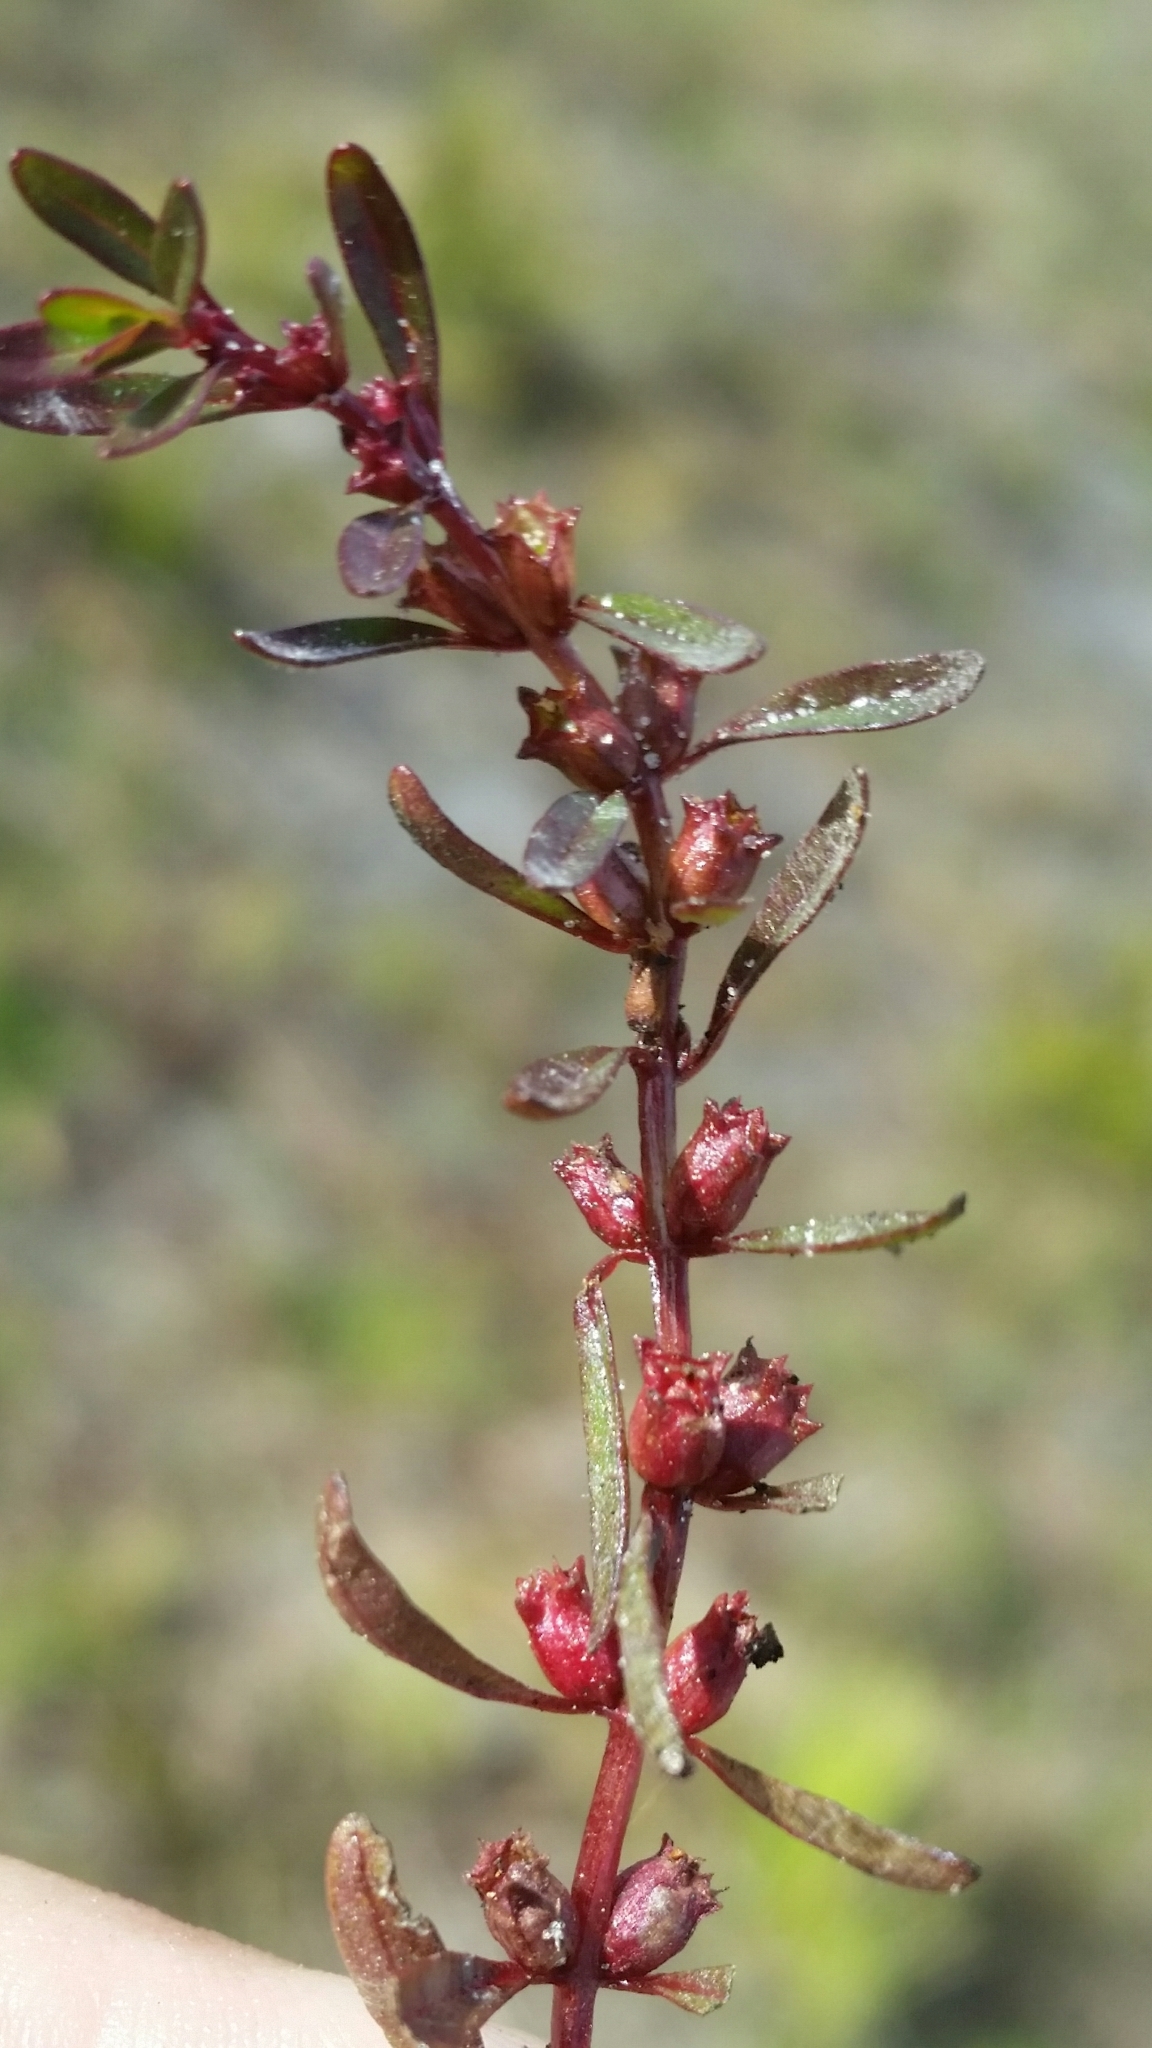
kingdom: Plantae
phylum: Tracheophyta
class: Magnoliopsida
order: Myrtales
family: Lythraceae
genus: Rotala
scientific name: Rotala ramosior
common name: Lowland rotala
